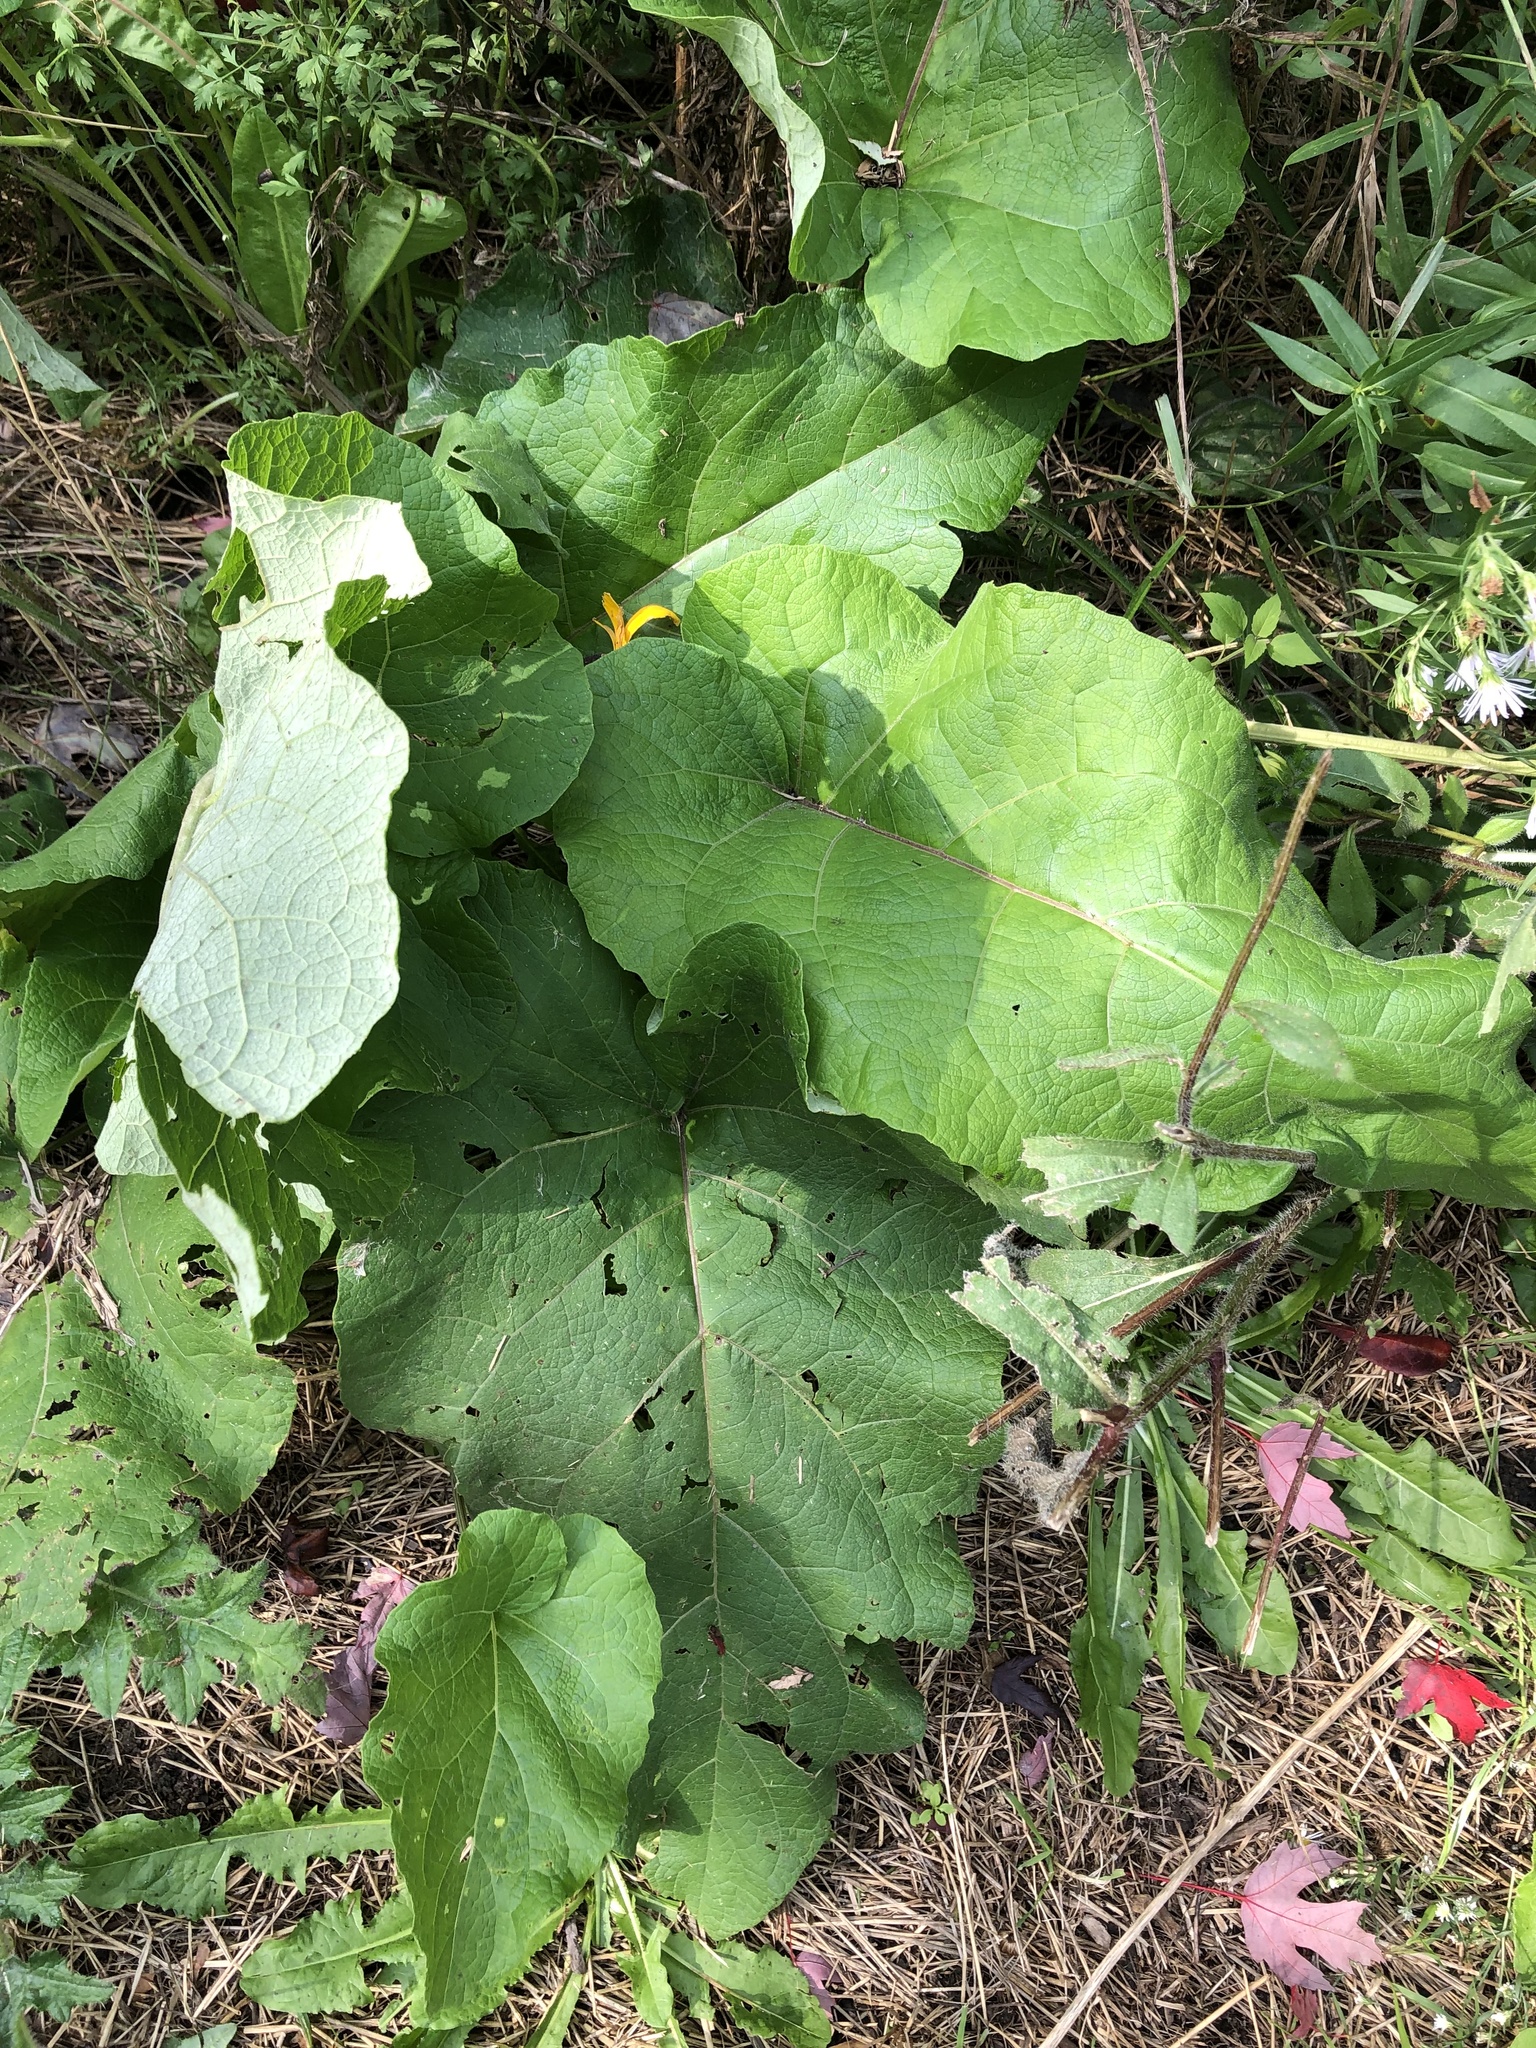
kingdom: Plantae
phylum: Tracheophyta
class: Magnoliopsida
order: Asterales
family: Asteraceae
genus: Arctium
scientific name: Arctium
